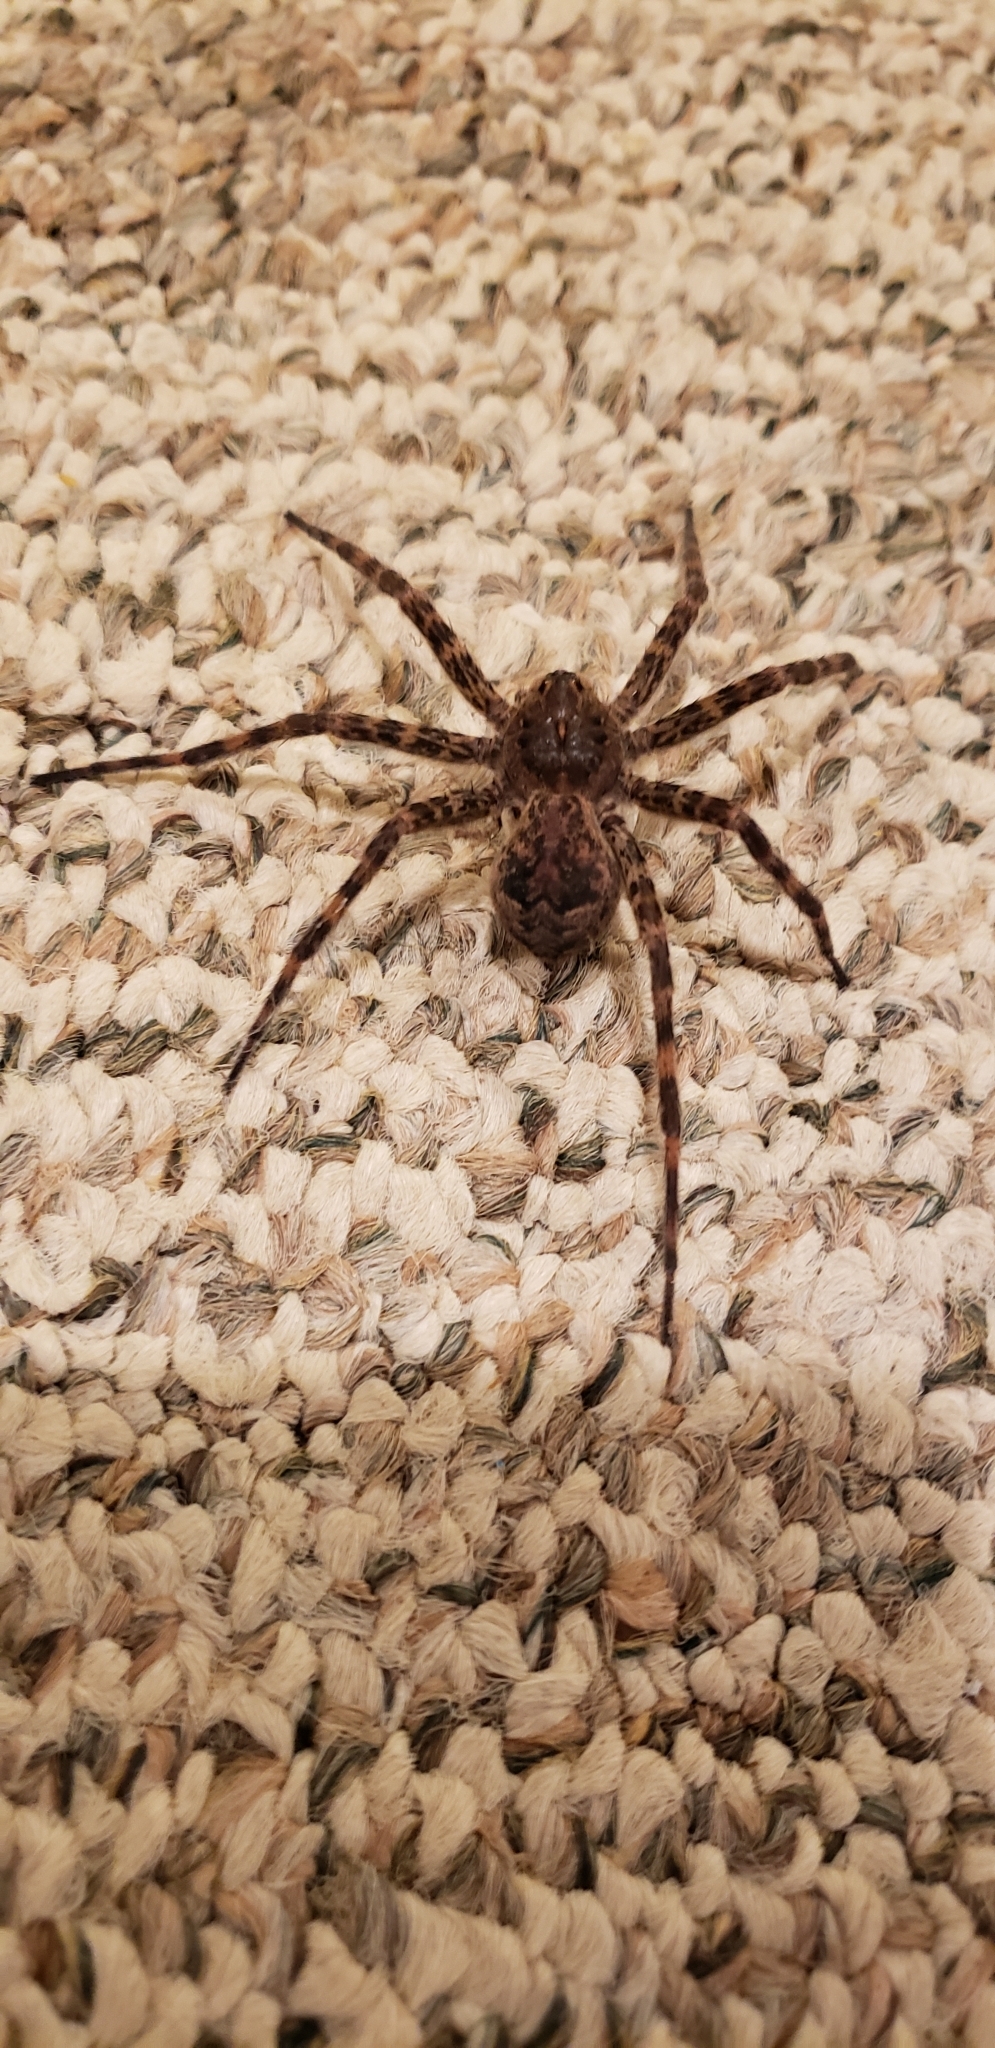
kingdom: Animalia
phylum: Arthropoda
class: Arachnida
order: Araneae
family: Pisauridae
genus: Dolomedes
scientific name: Dolomedes tenebrosus
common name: Dark fishing spider
